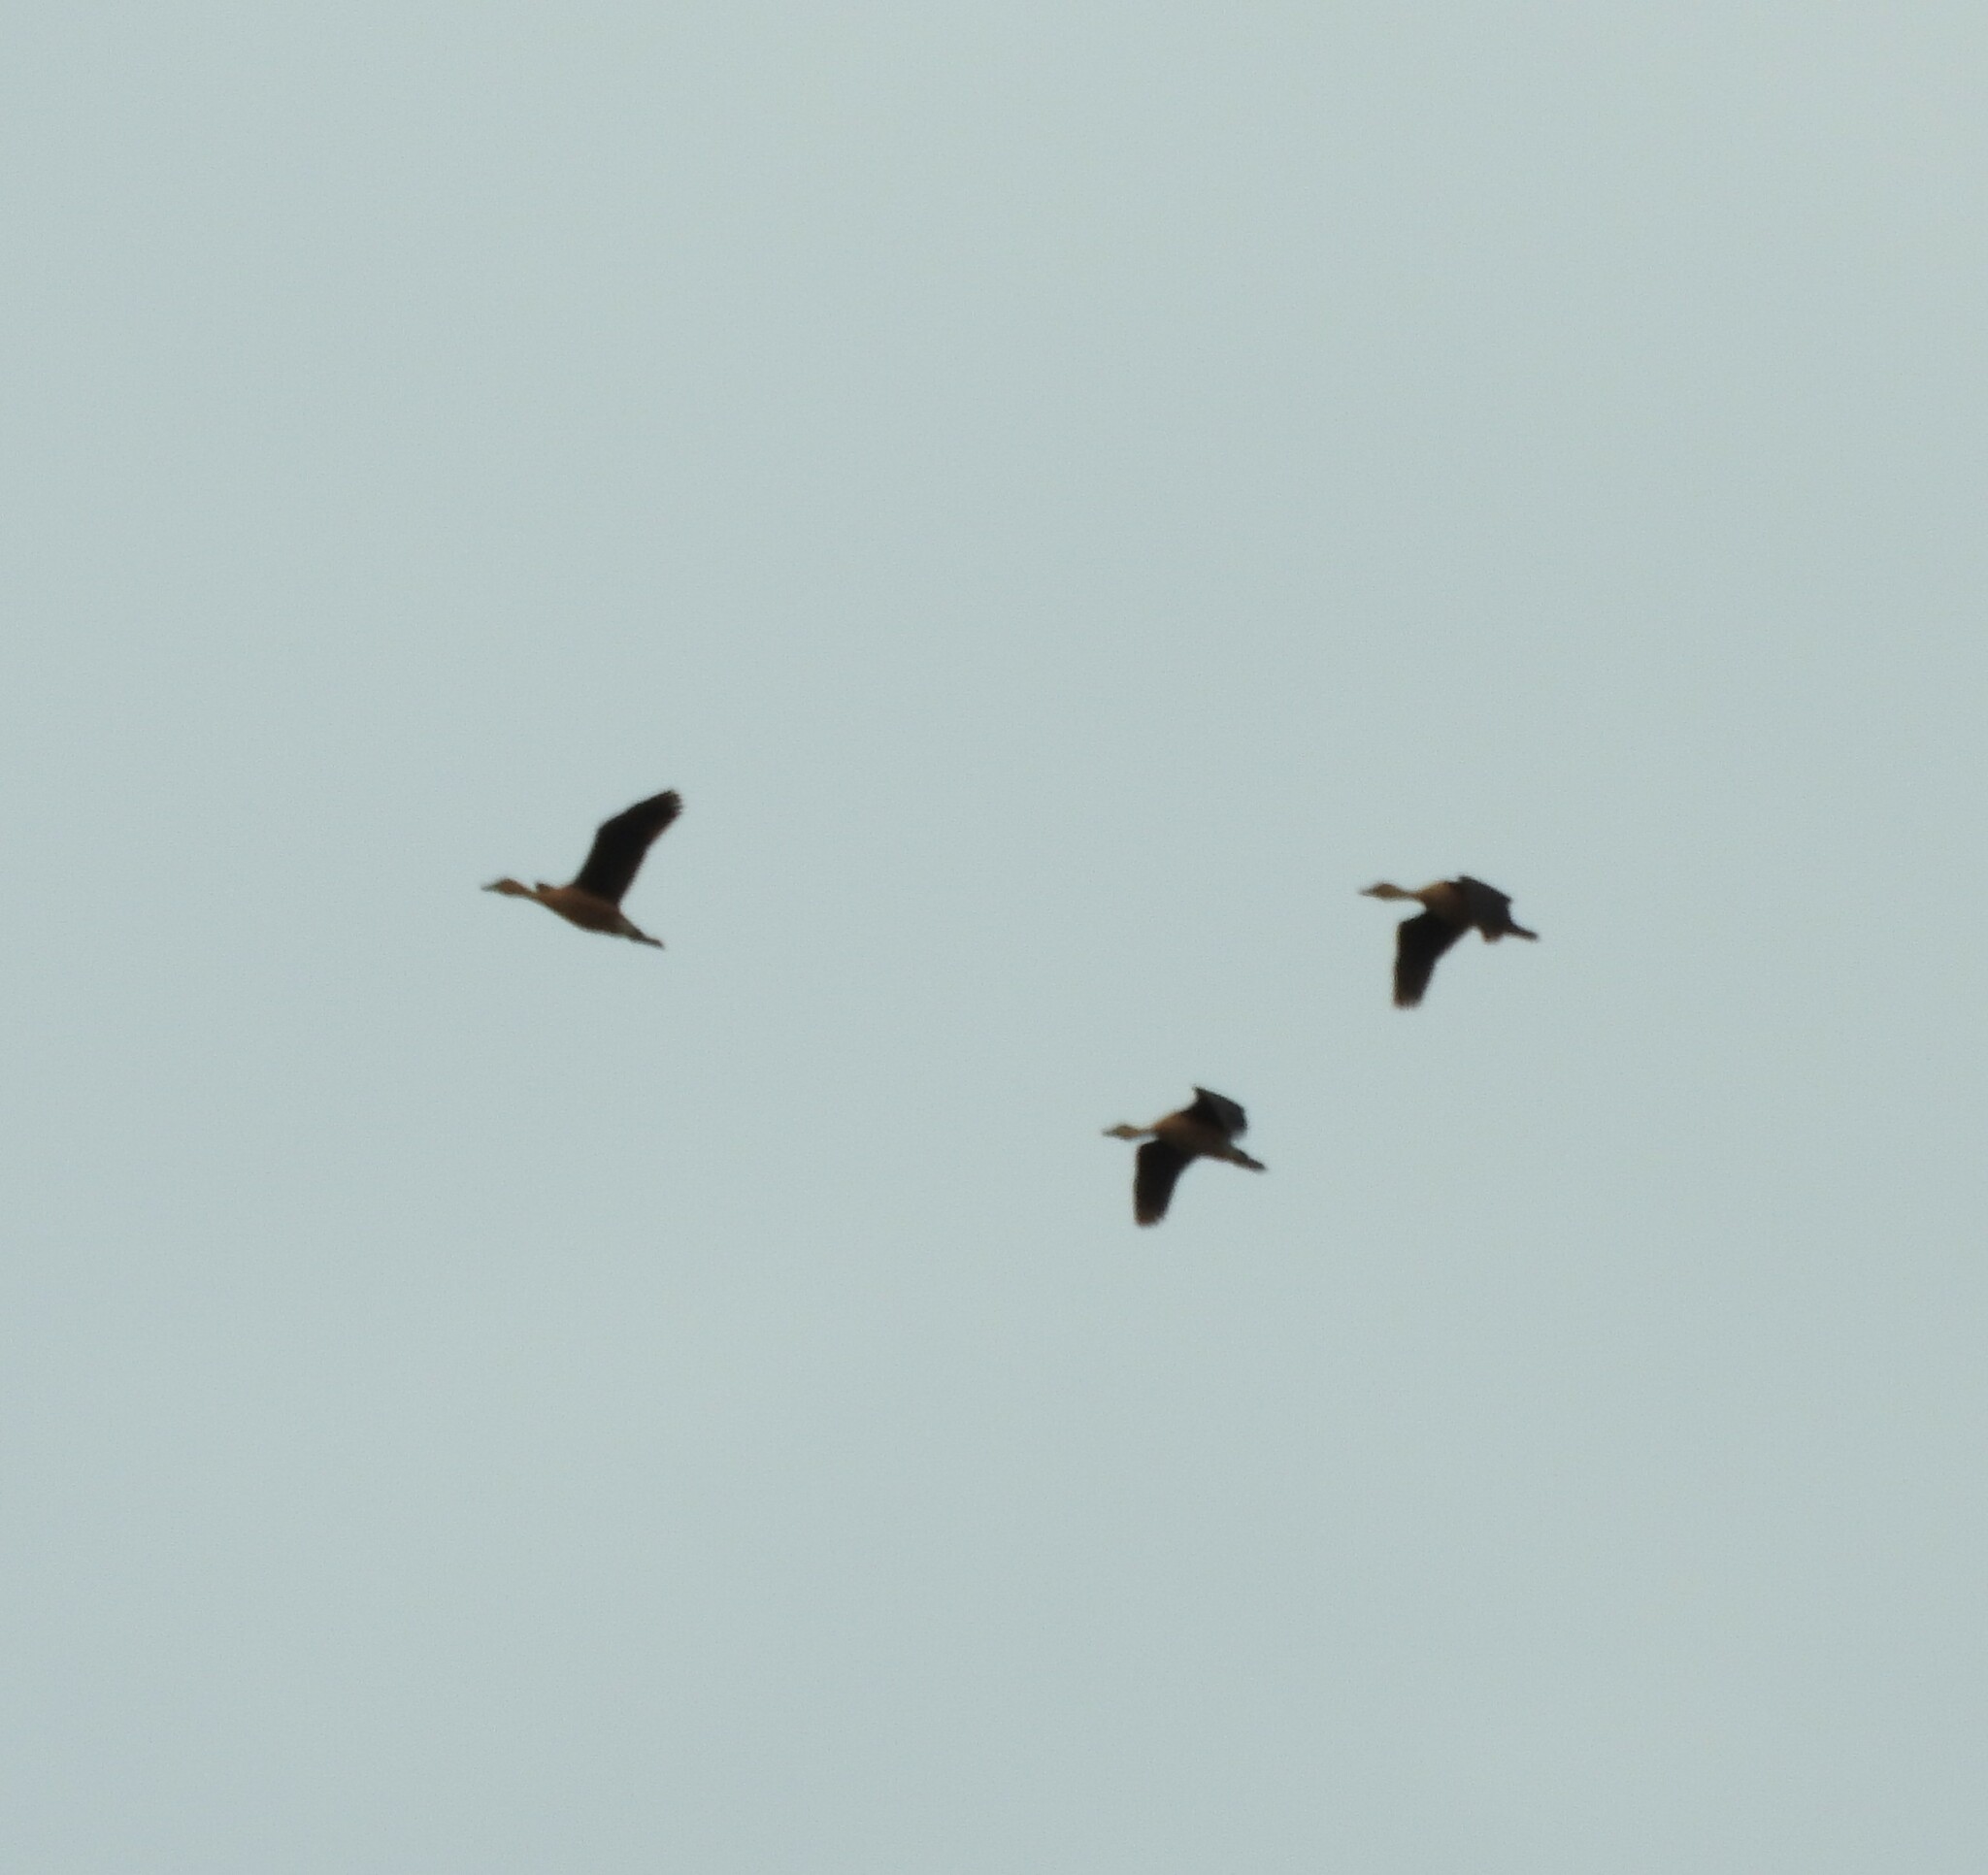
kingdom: Animalia
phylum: Chordata
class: Aves
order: Anseriformes
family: Anatidae
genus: Dendrocygna
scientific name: Dendrocygna bicolor
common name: Fulvous whistling duck
